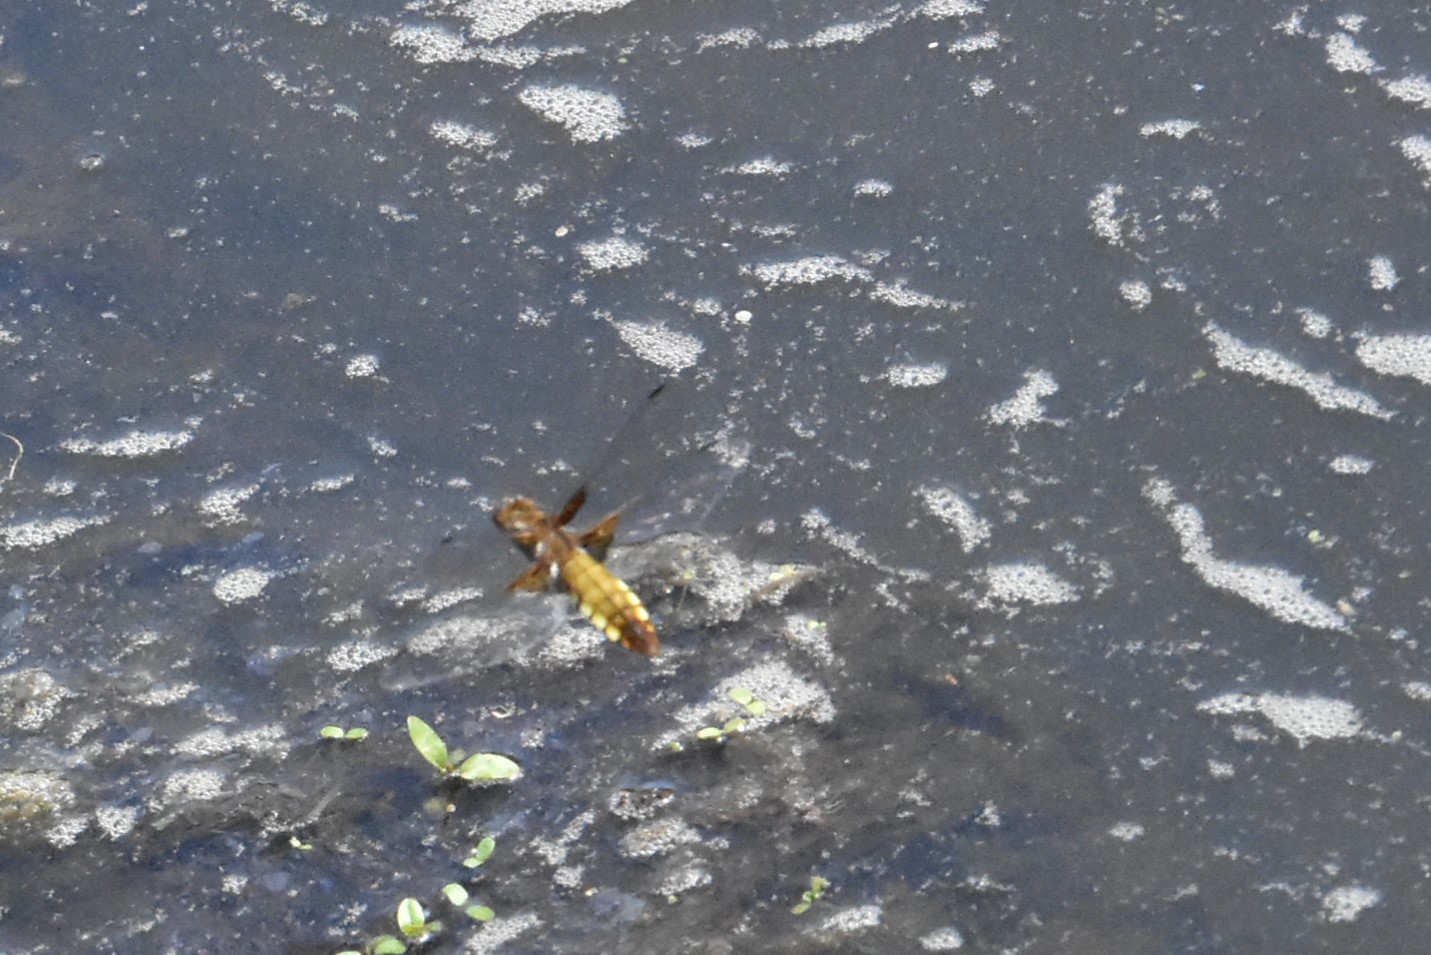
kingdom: Animalia
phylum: Arthropoda
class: Insecta
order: Odonata
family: Libellulidae
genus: Libellula
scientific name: Libellula depressa
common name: Broad-bodied chaser
